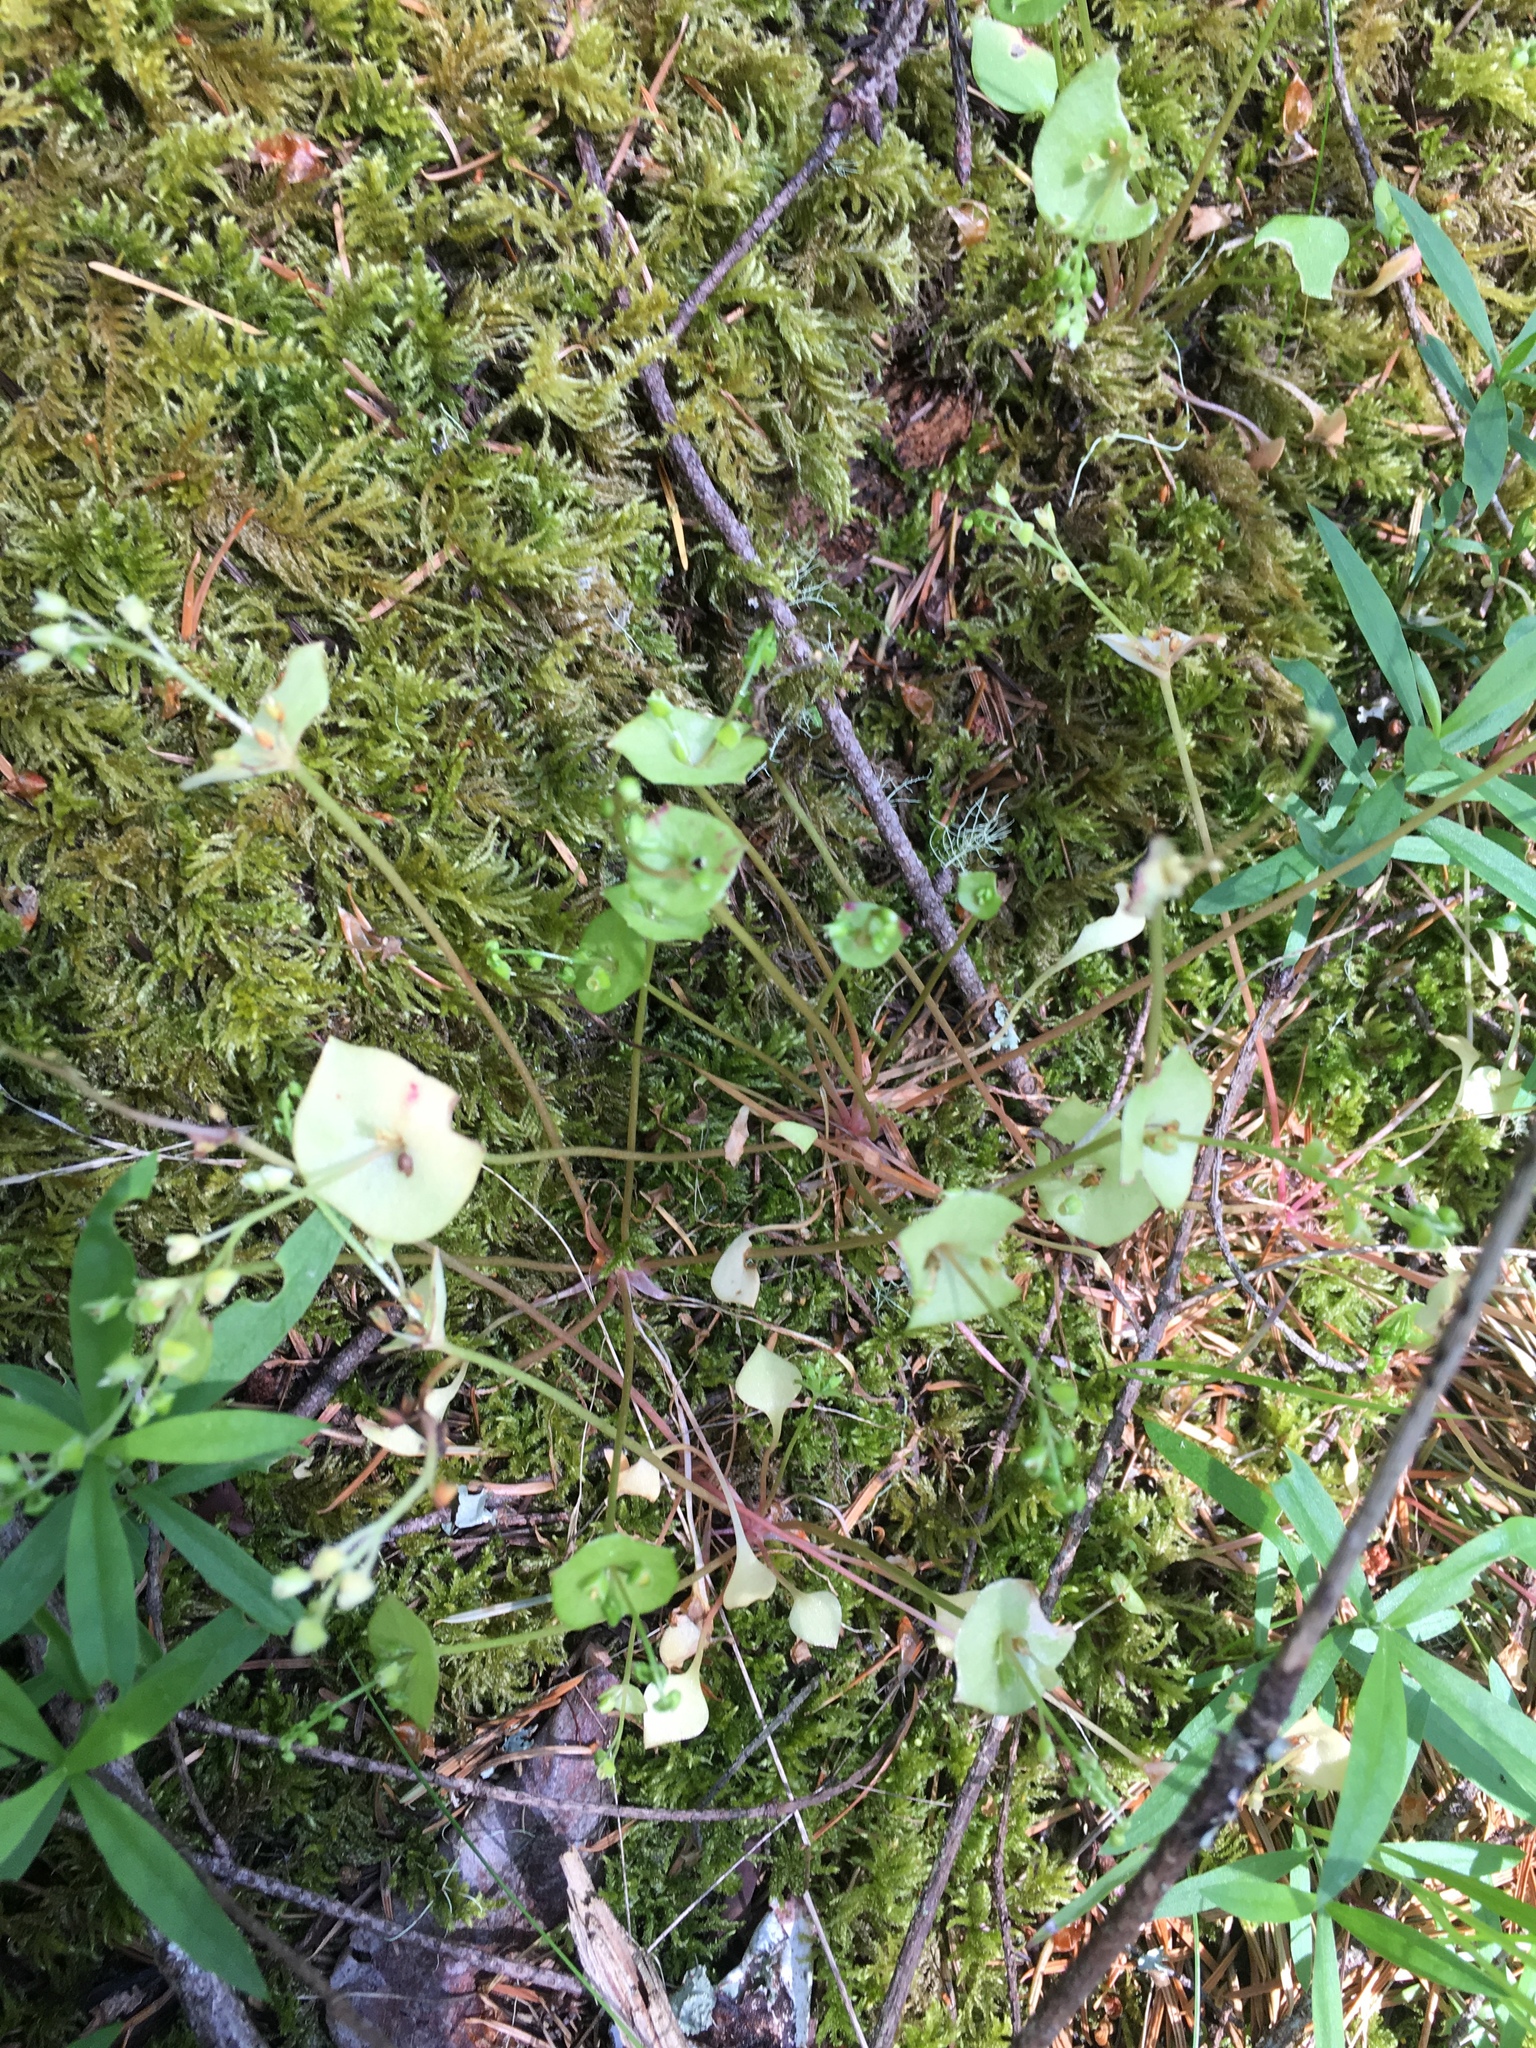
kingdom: Plantae
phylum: Tracheophyta
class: Magnoliopsida
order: Caryophyllales
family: Montiaceae
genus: Claytonia
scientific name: Claytonia perfoliata
